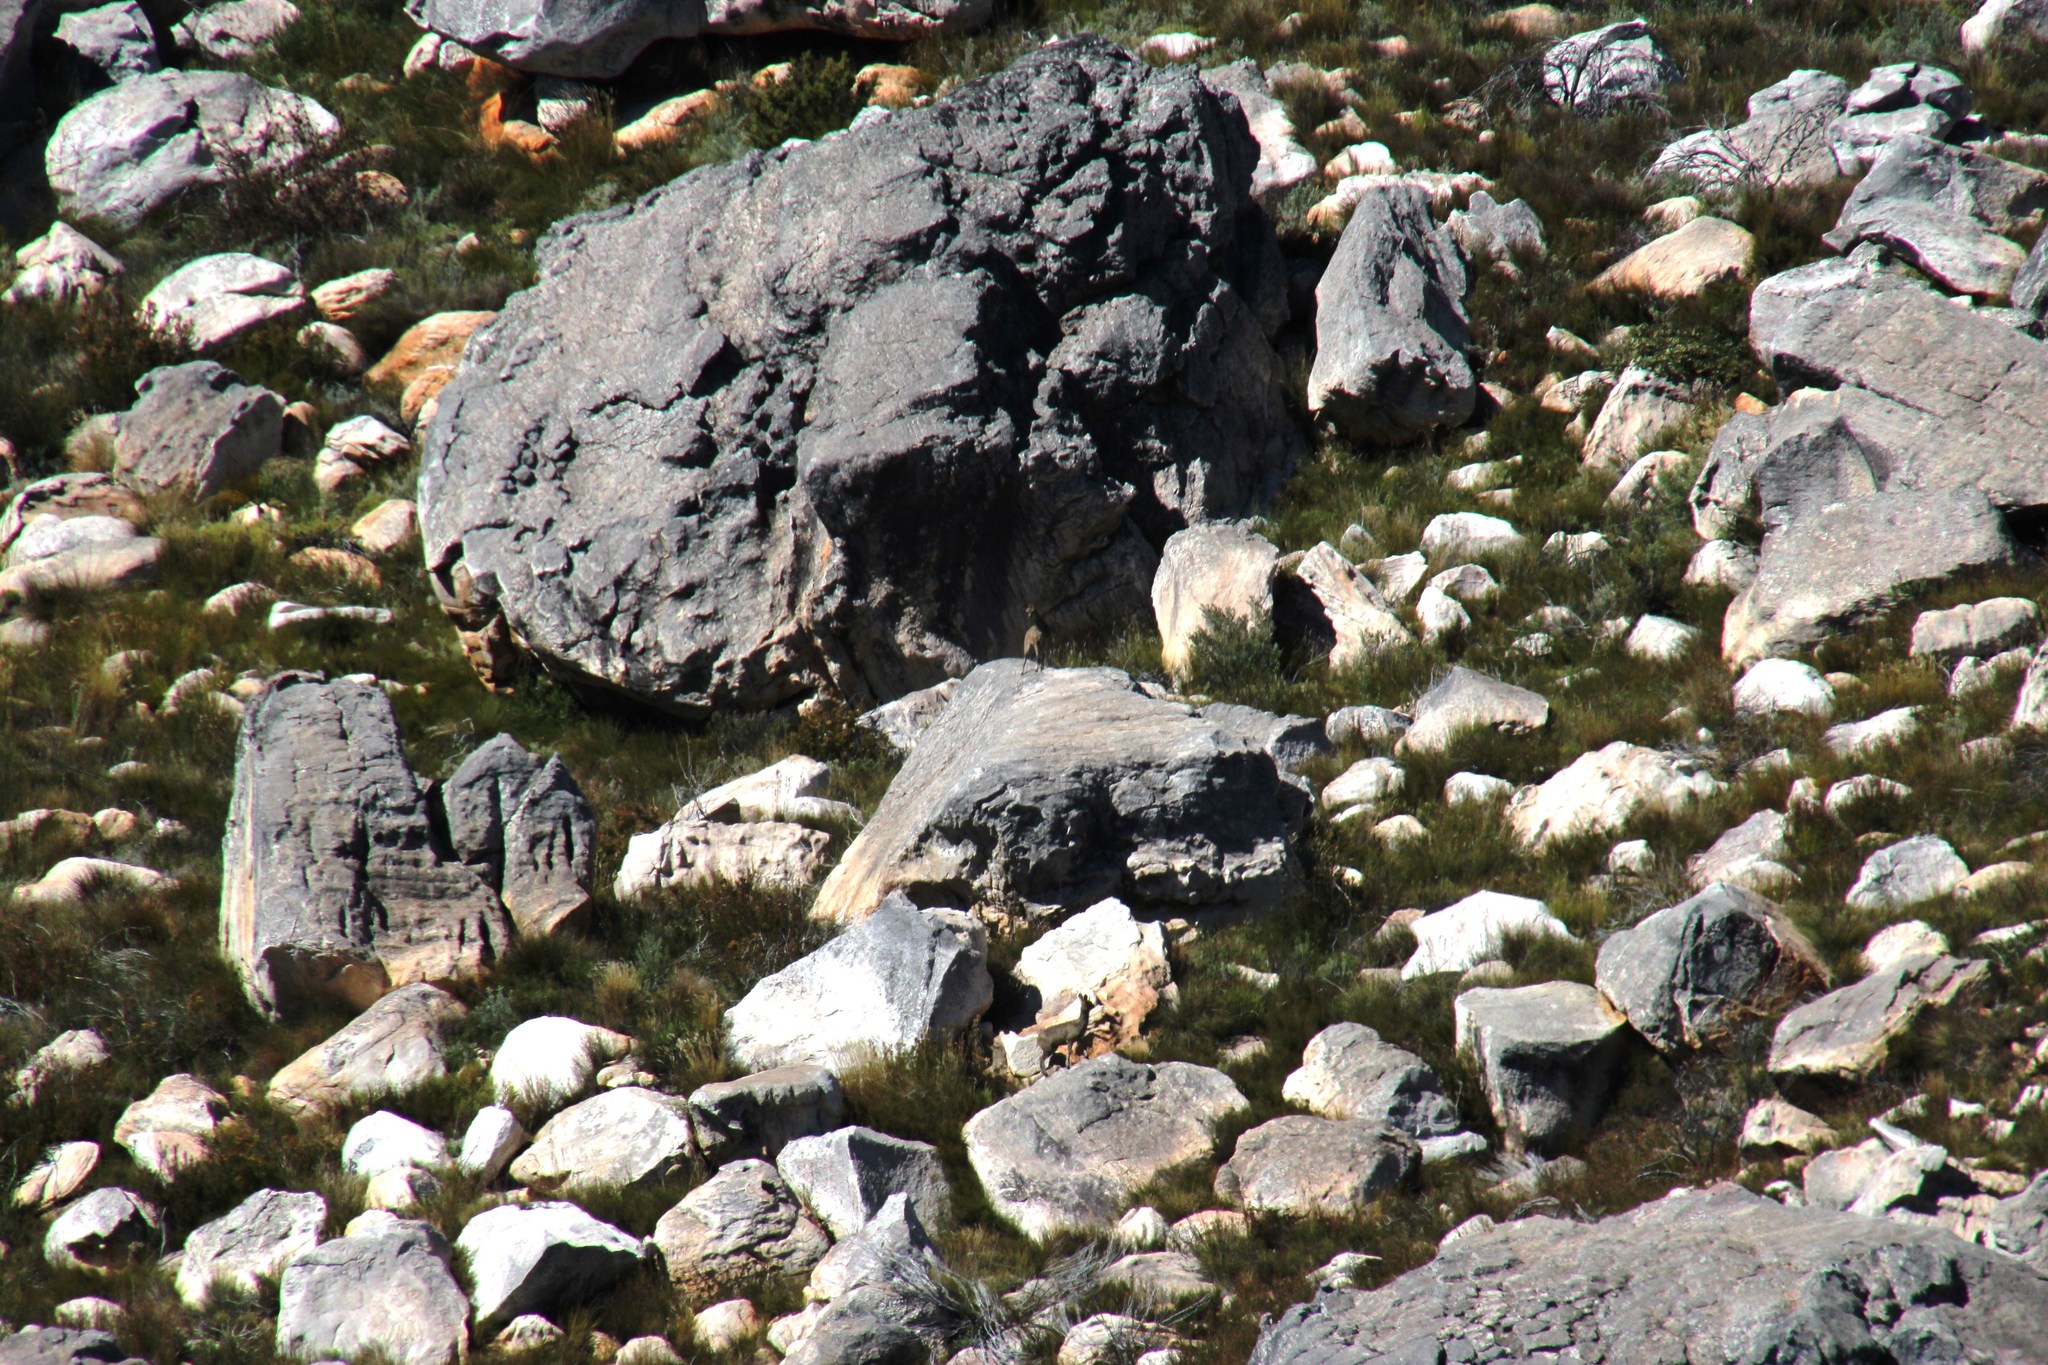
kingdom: Animalia
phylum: Chordata
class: Mammalia
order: Artiodactyla
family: Bovidae
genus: Oreotragus
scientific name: Oreotragus oreotragus
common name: Klipspringer
